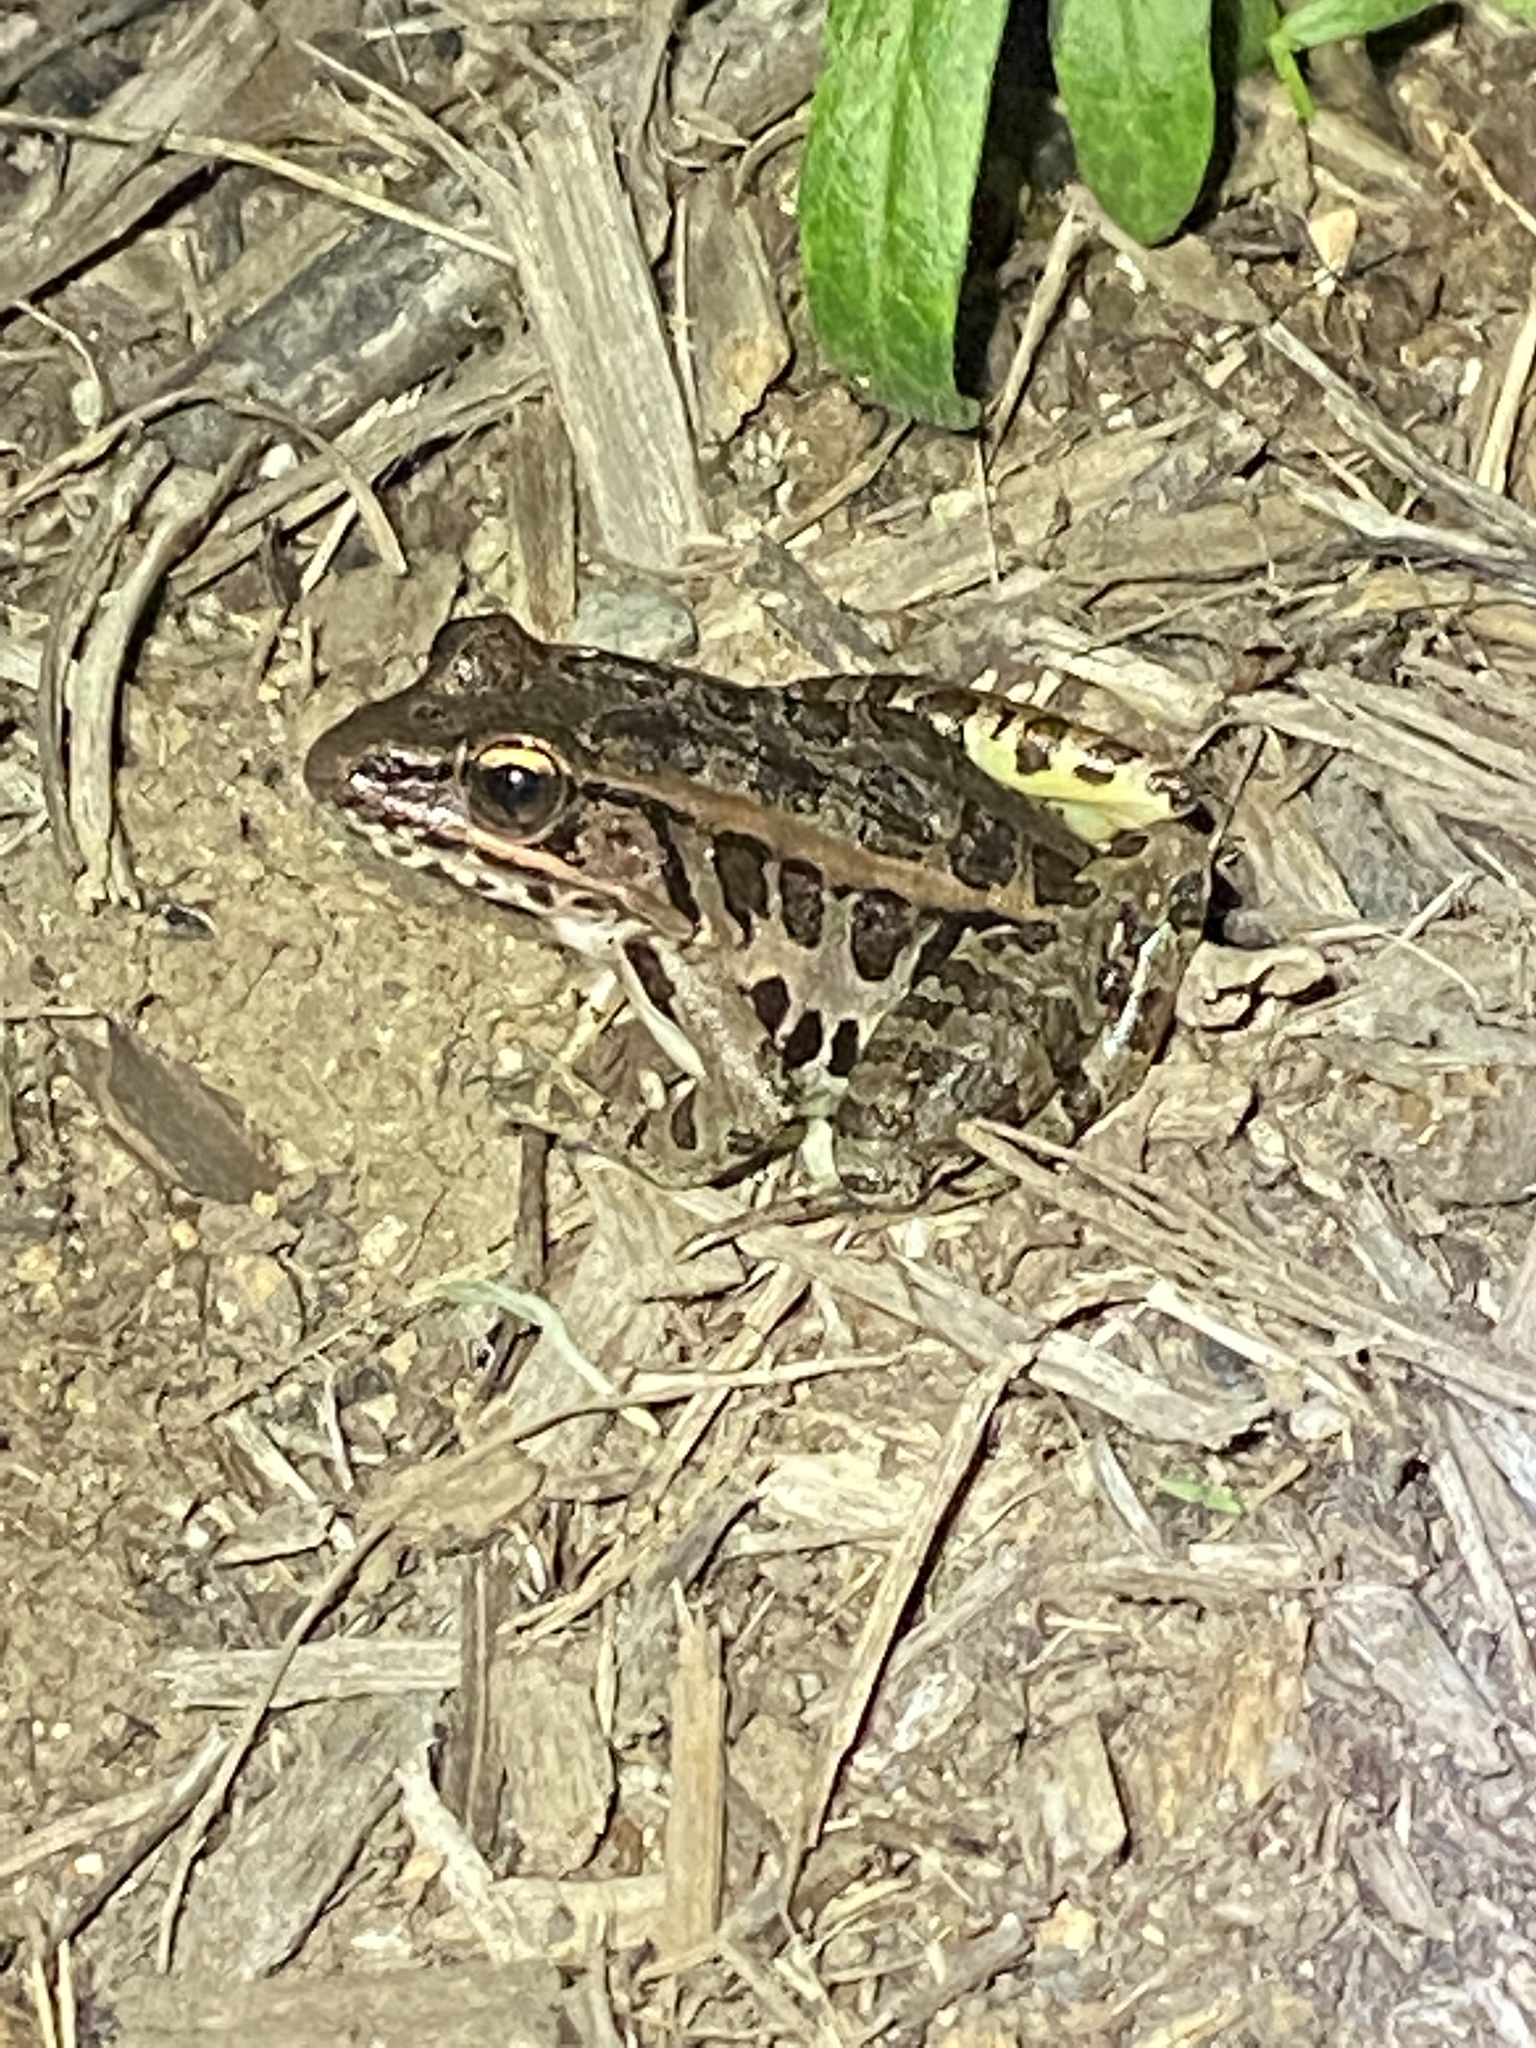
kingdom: Animalia
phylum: Chordata
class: Amphibia
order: Anura
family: Ranidae
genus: Lithobates
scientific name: Lithobates palustris
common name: Pickerel frog
